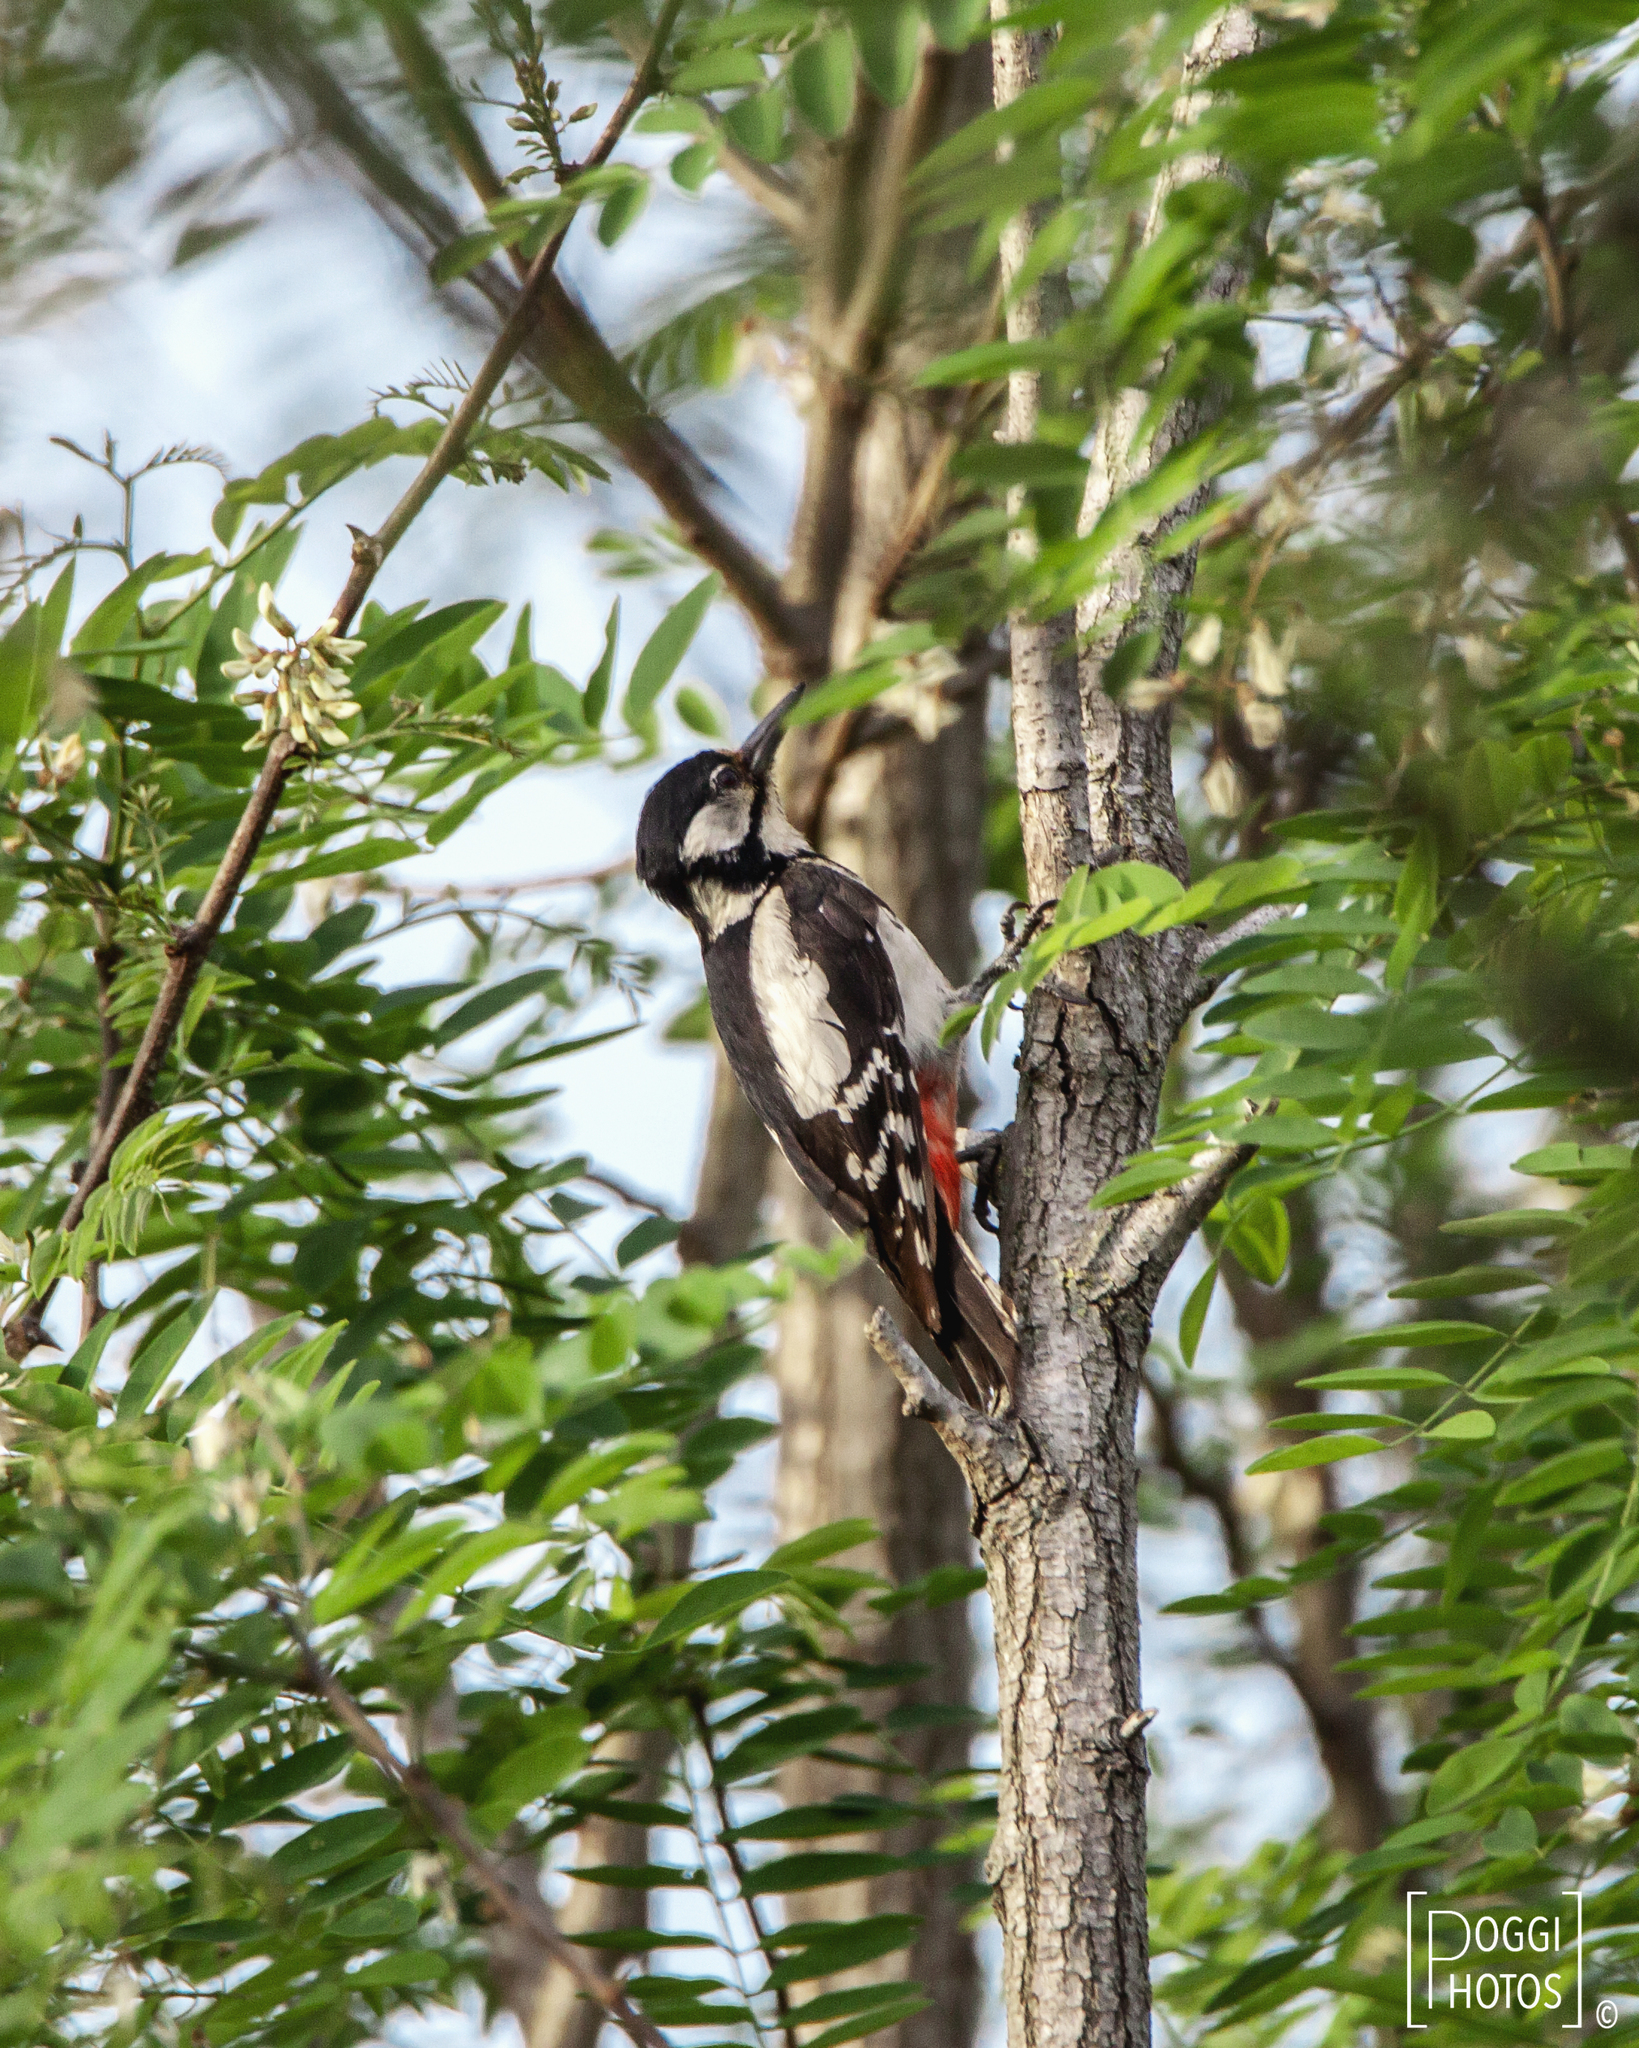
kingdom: Animalia
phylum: Chordata
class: Aves
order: Piciformes
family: Picidae
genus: Dendrocopos
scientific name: Dendrocopos major
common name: Great spotted woodpecker
